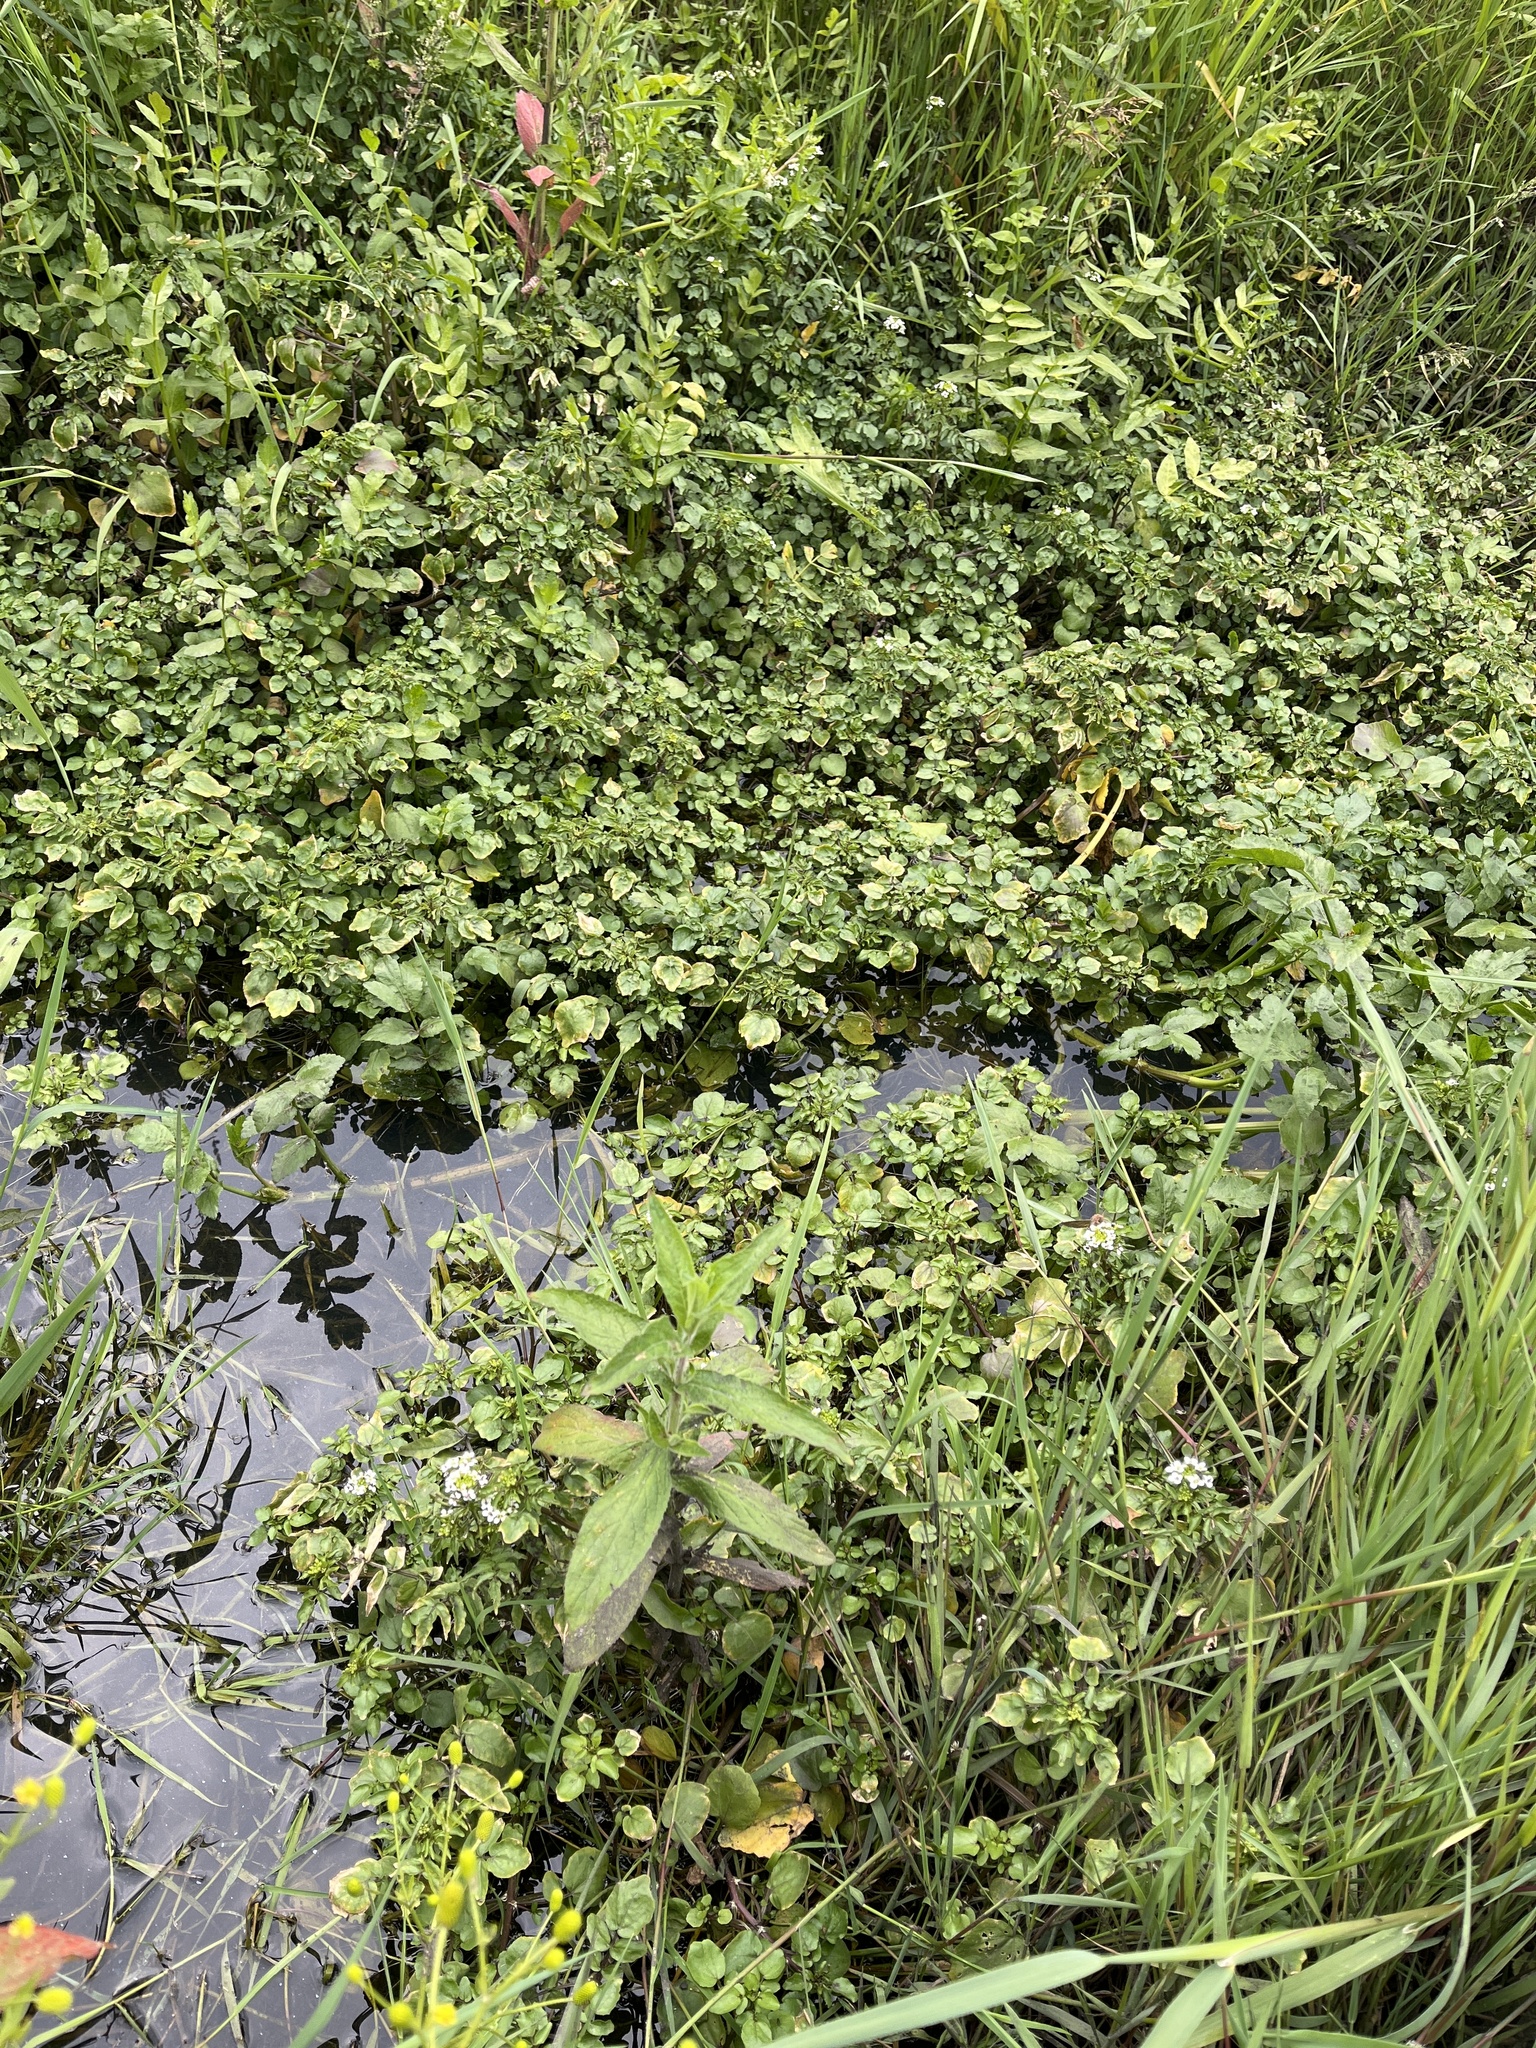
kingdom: Plantae
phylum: Tracheophyta
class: Magnoliopsida
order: Brassicales
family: Brassicaceae
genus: Nasturtium
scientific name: Nasturtium officinale
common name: Watercress
